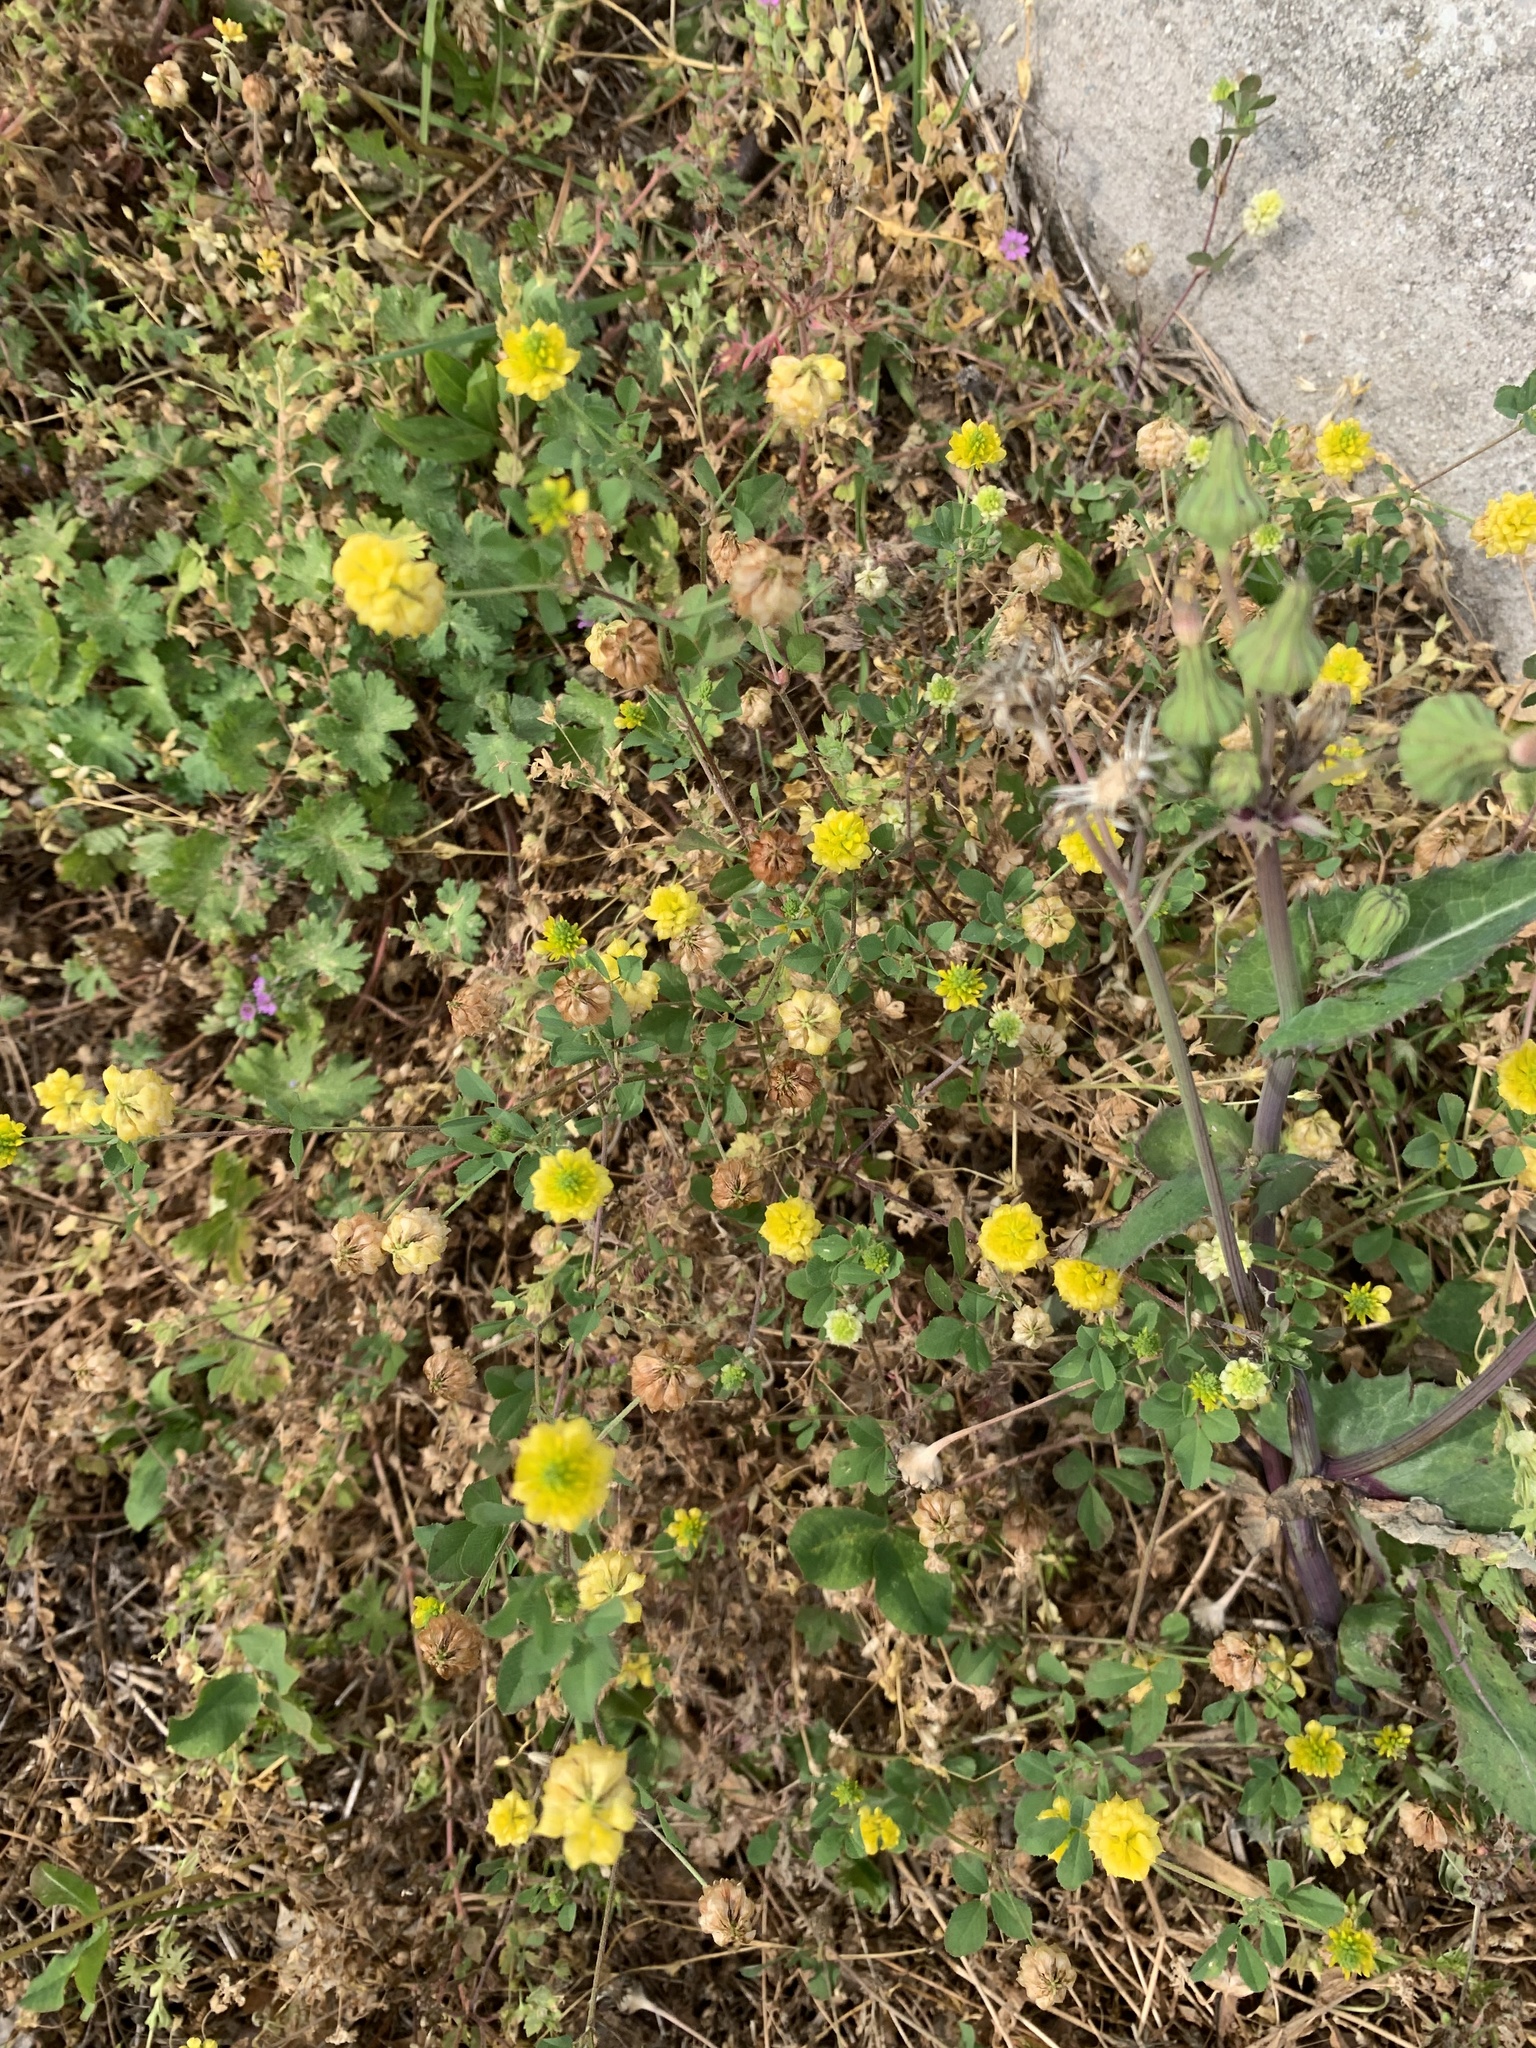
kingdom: Plantae
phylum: Tracheophyta
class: Magnoliopsida
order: Fabales
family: Fabaceae
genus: Trifolium
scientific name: Trifolium campestre
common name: Field clover
